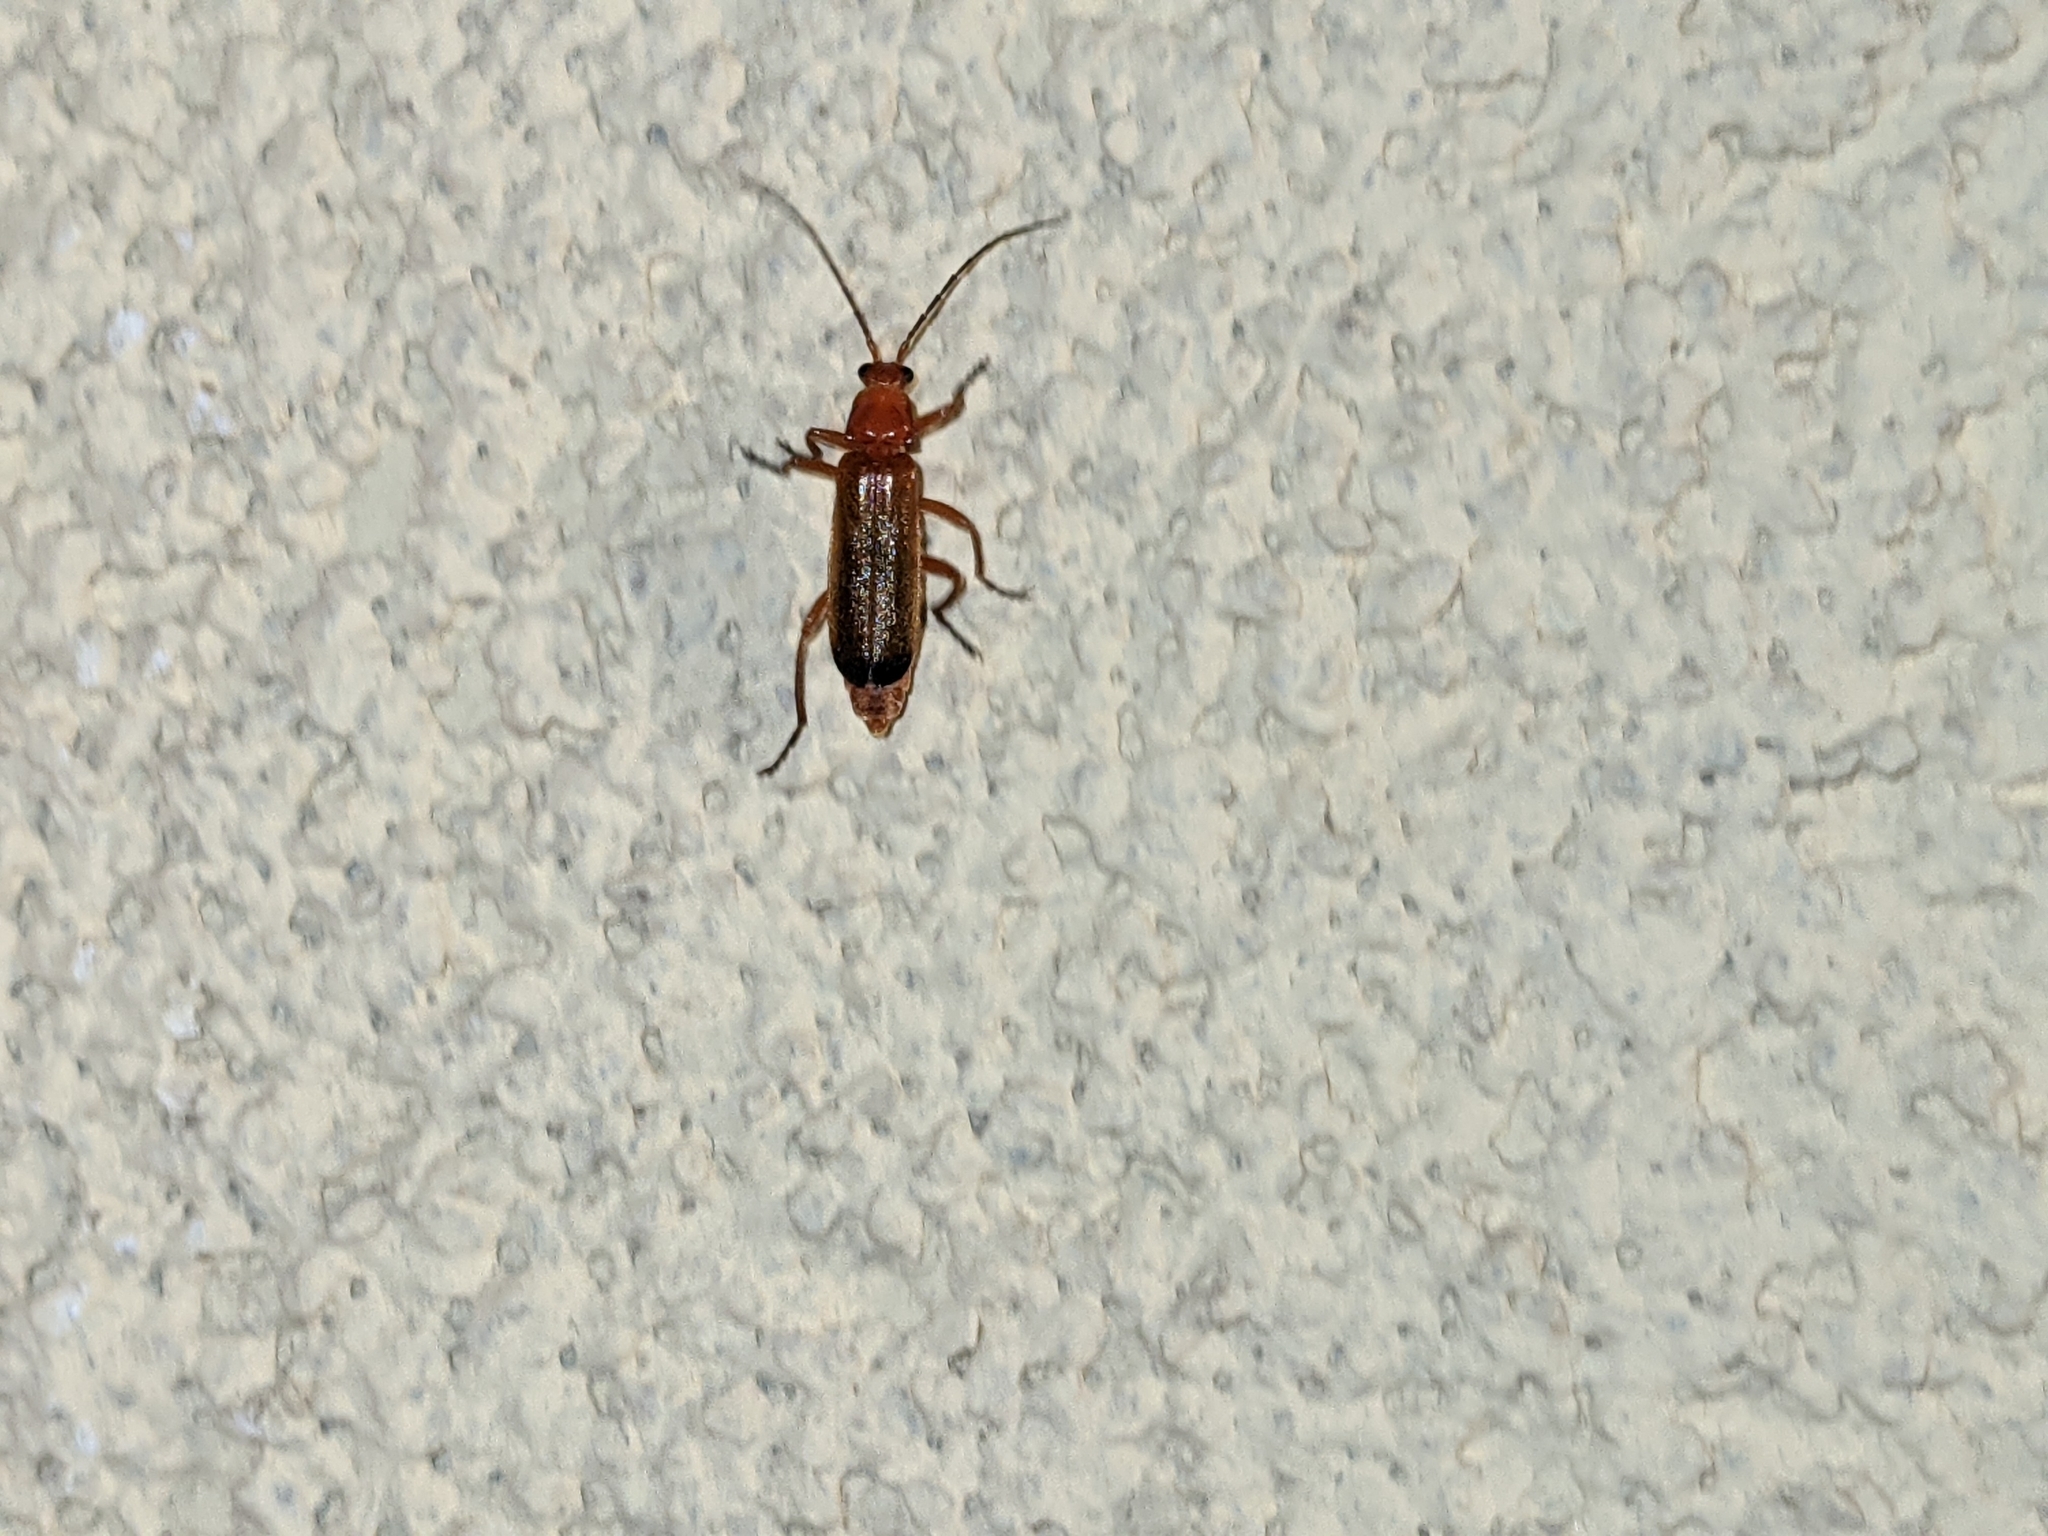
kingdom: Animalia
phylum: Arthropoda
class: Insecta
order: Coleoptera
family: Cantharidae
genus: Rhagonycha
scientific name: Rhagonycha fulva
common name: Common red soldier beetle
